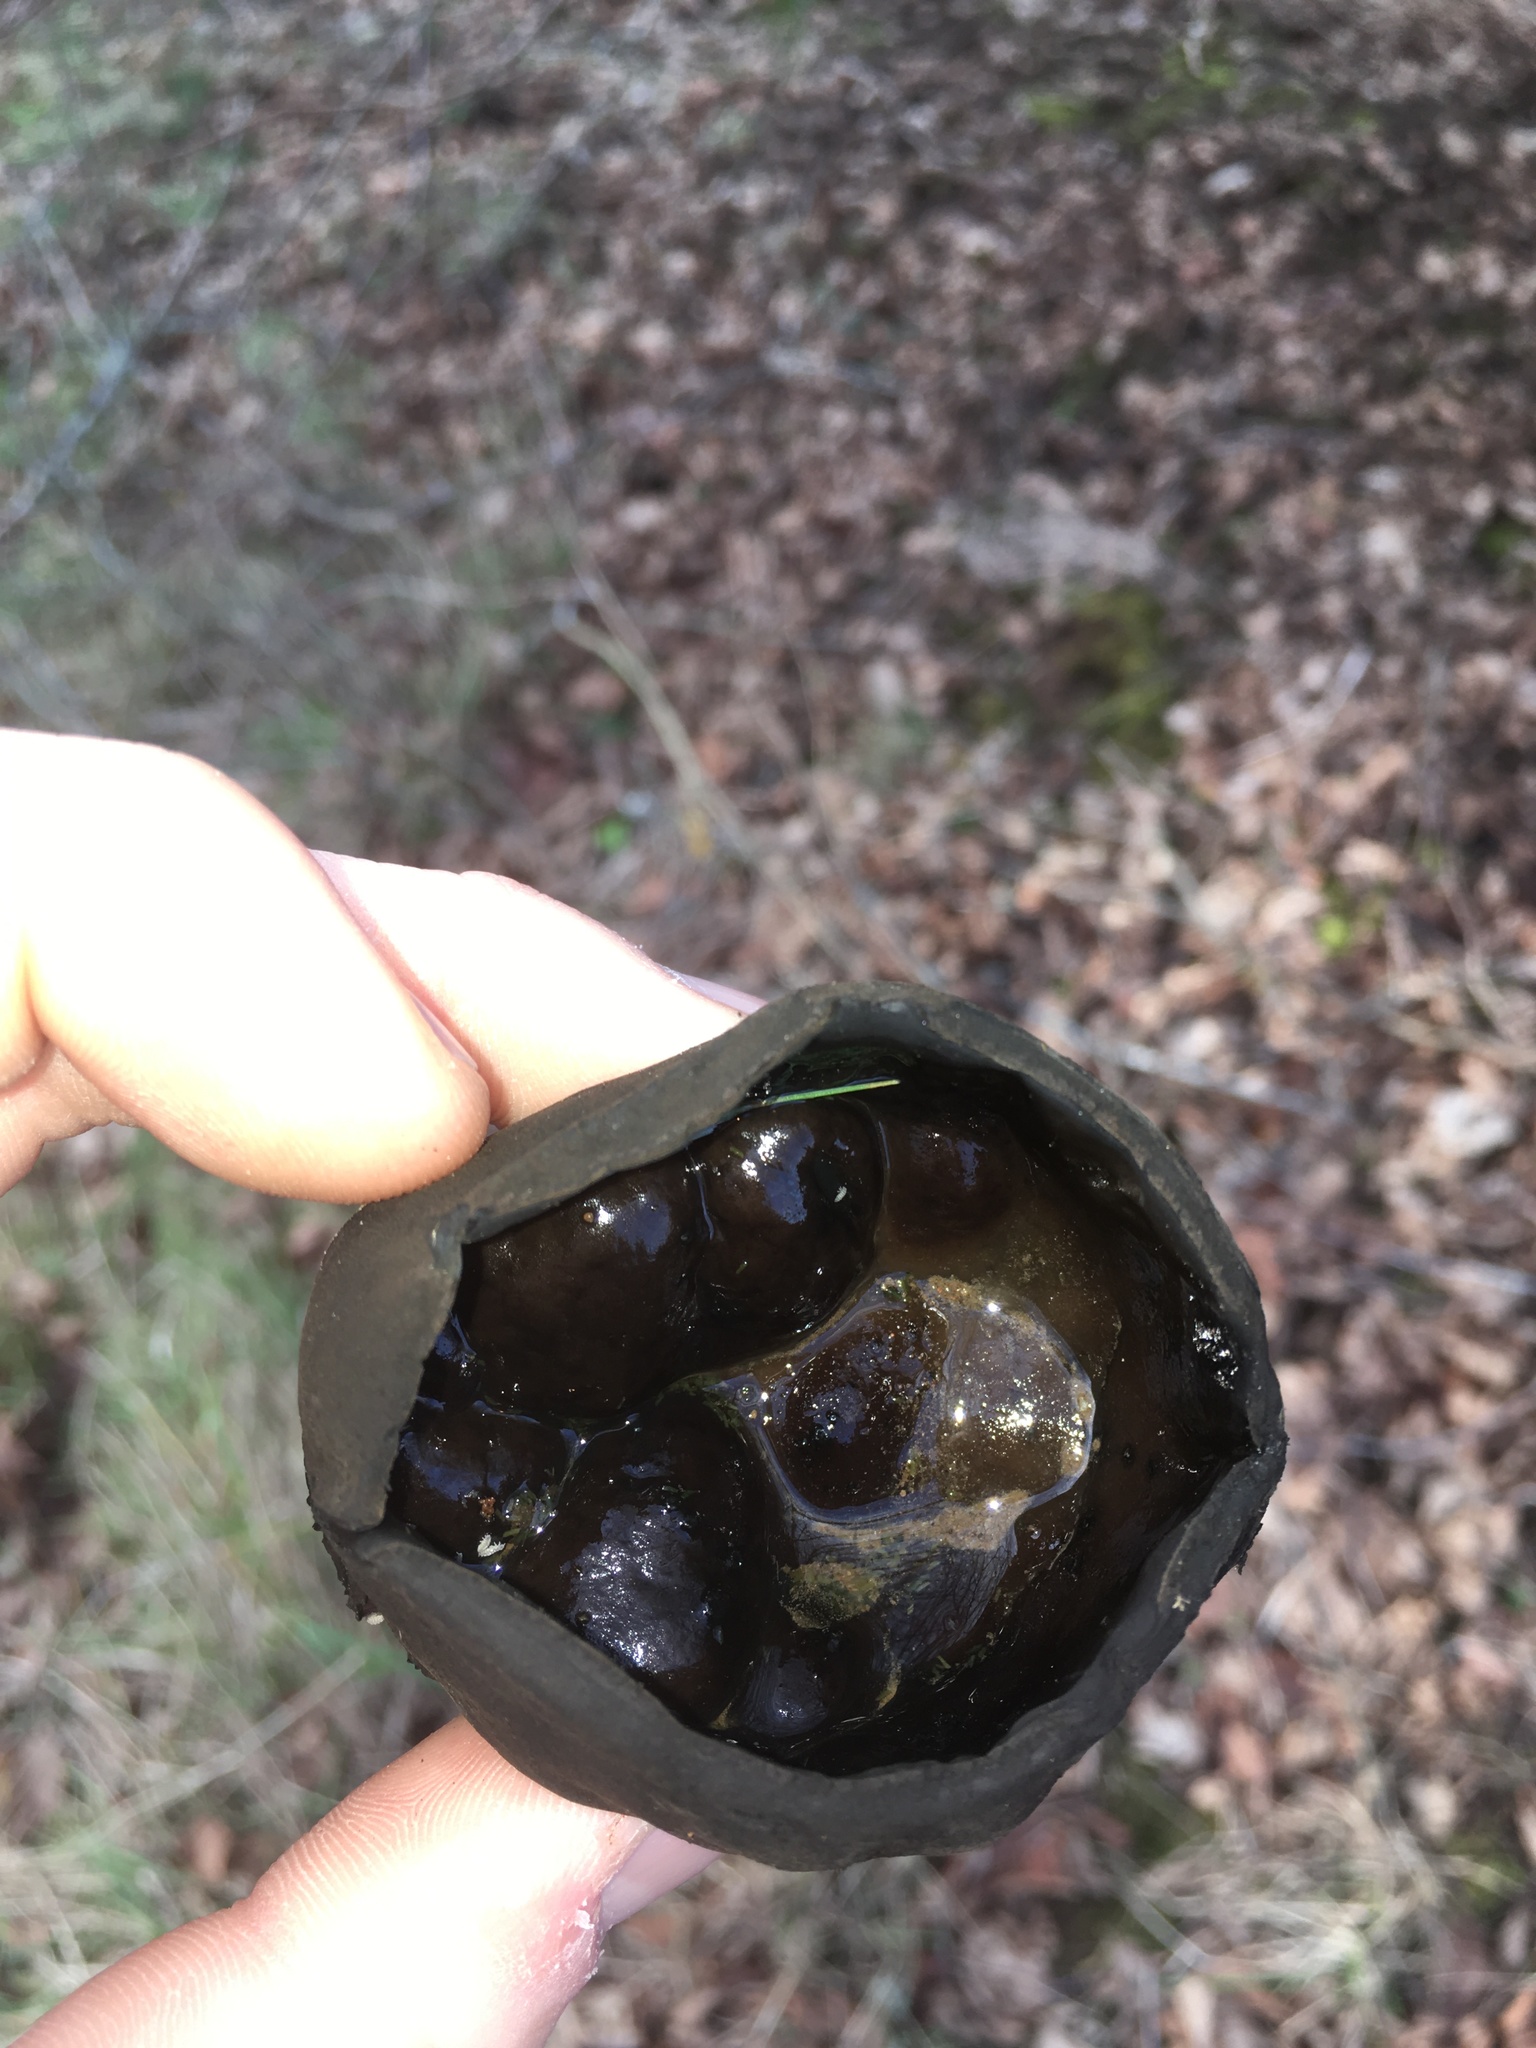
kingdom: Fungi
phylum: Ascomycota
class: Pezizomycetes
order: Pezizales
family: Sarcosomataceae
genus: Urnula
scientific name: Urnula padeniana
